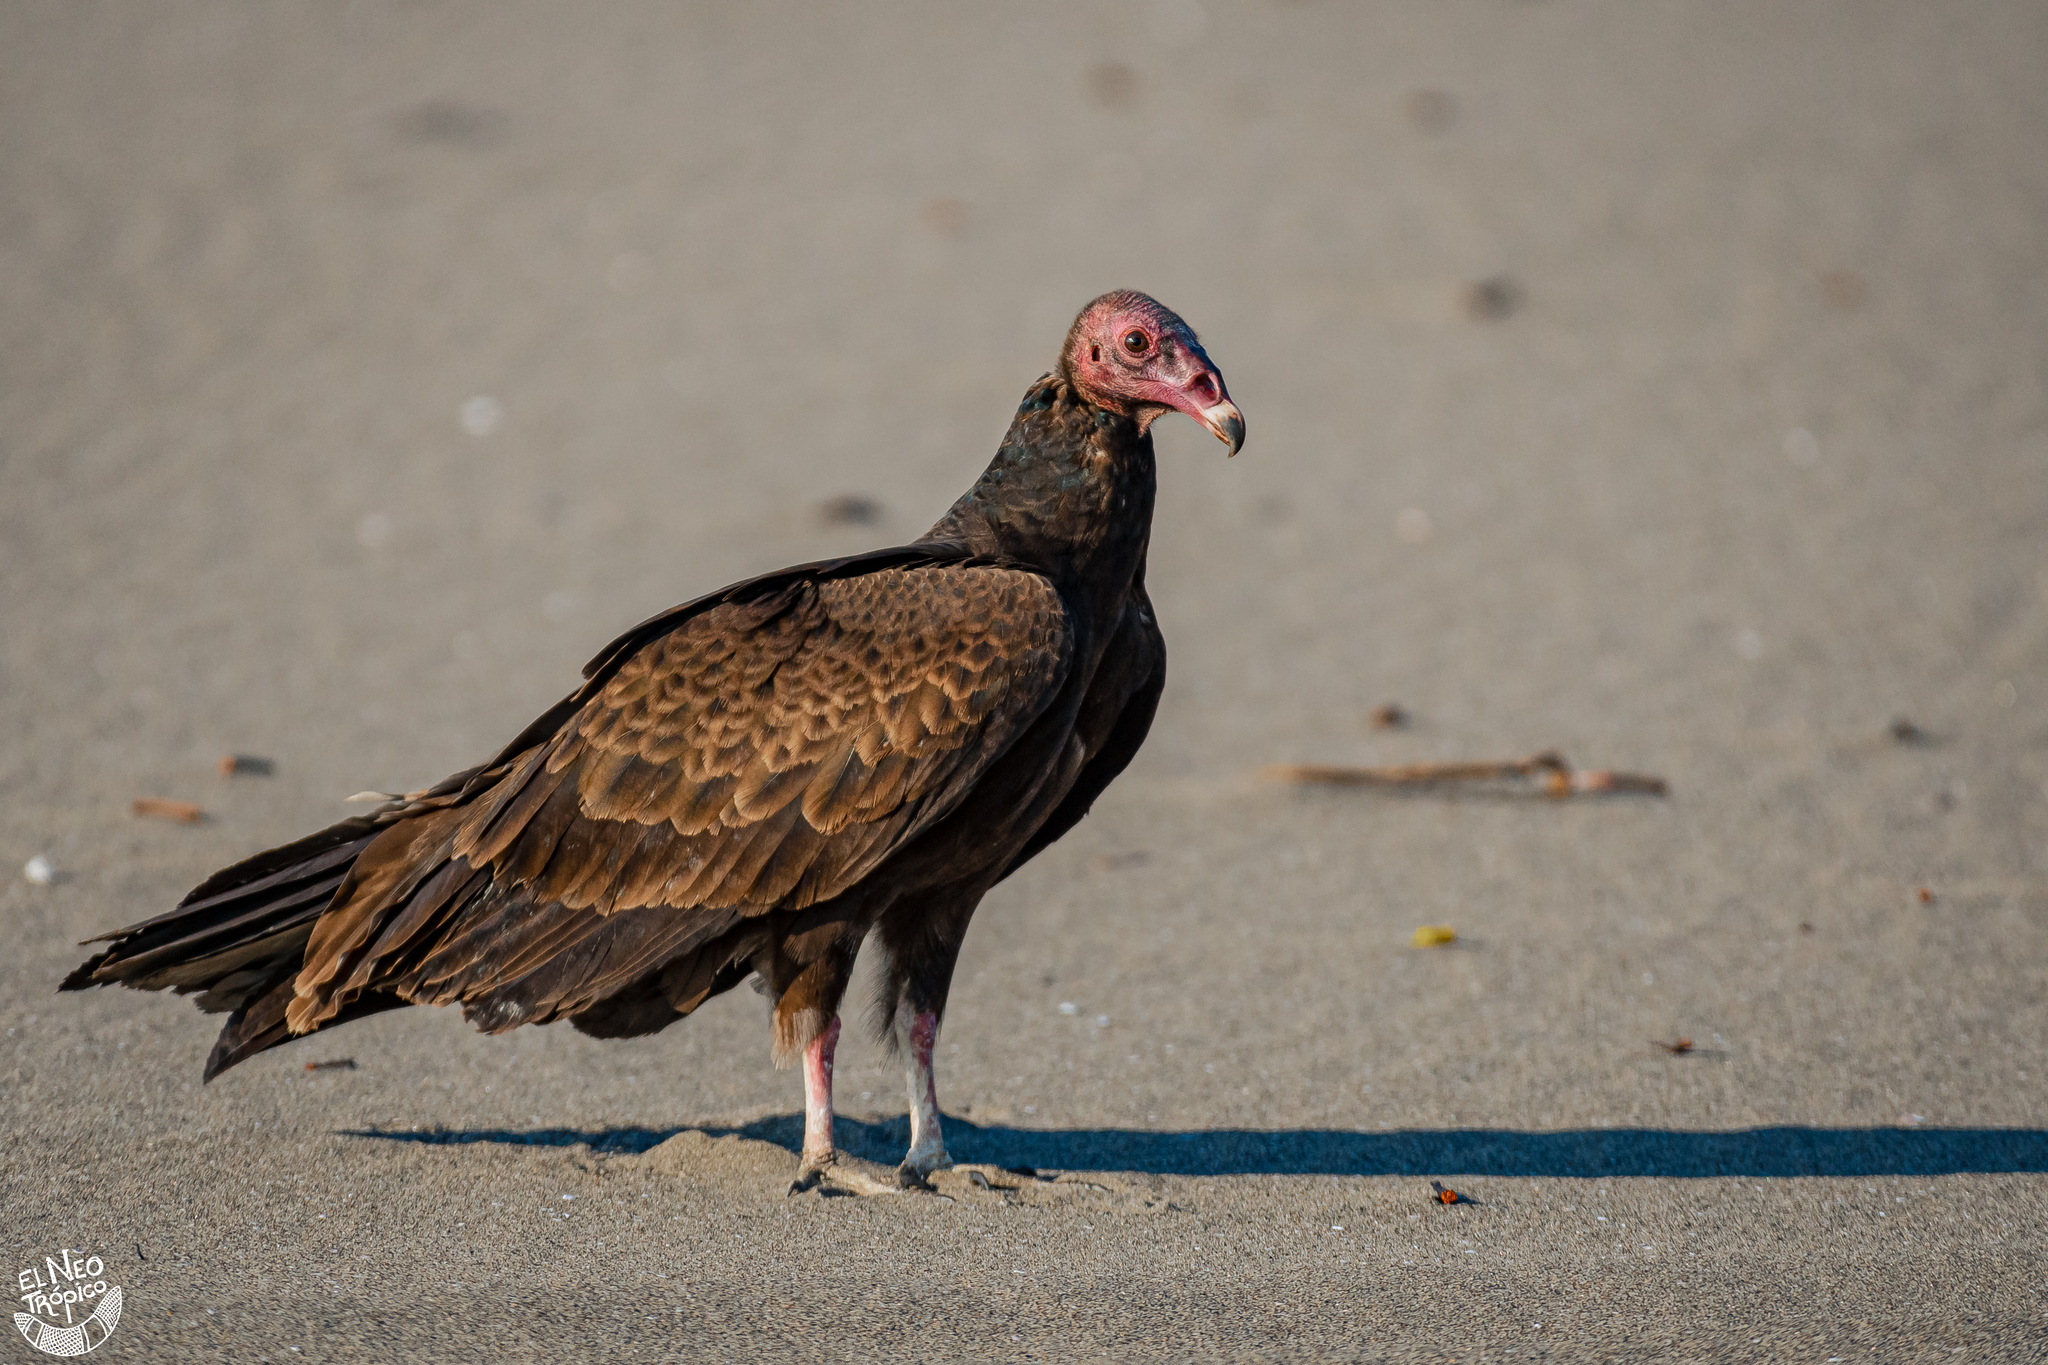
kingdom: Animalia
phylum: Chordata
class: Aves
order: Accipitriformes
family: Cathartidae
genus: Cathartes
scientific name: Cathartes aura
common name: Turkey vulture
